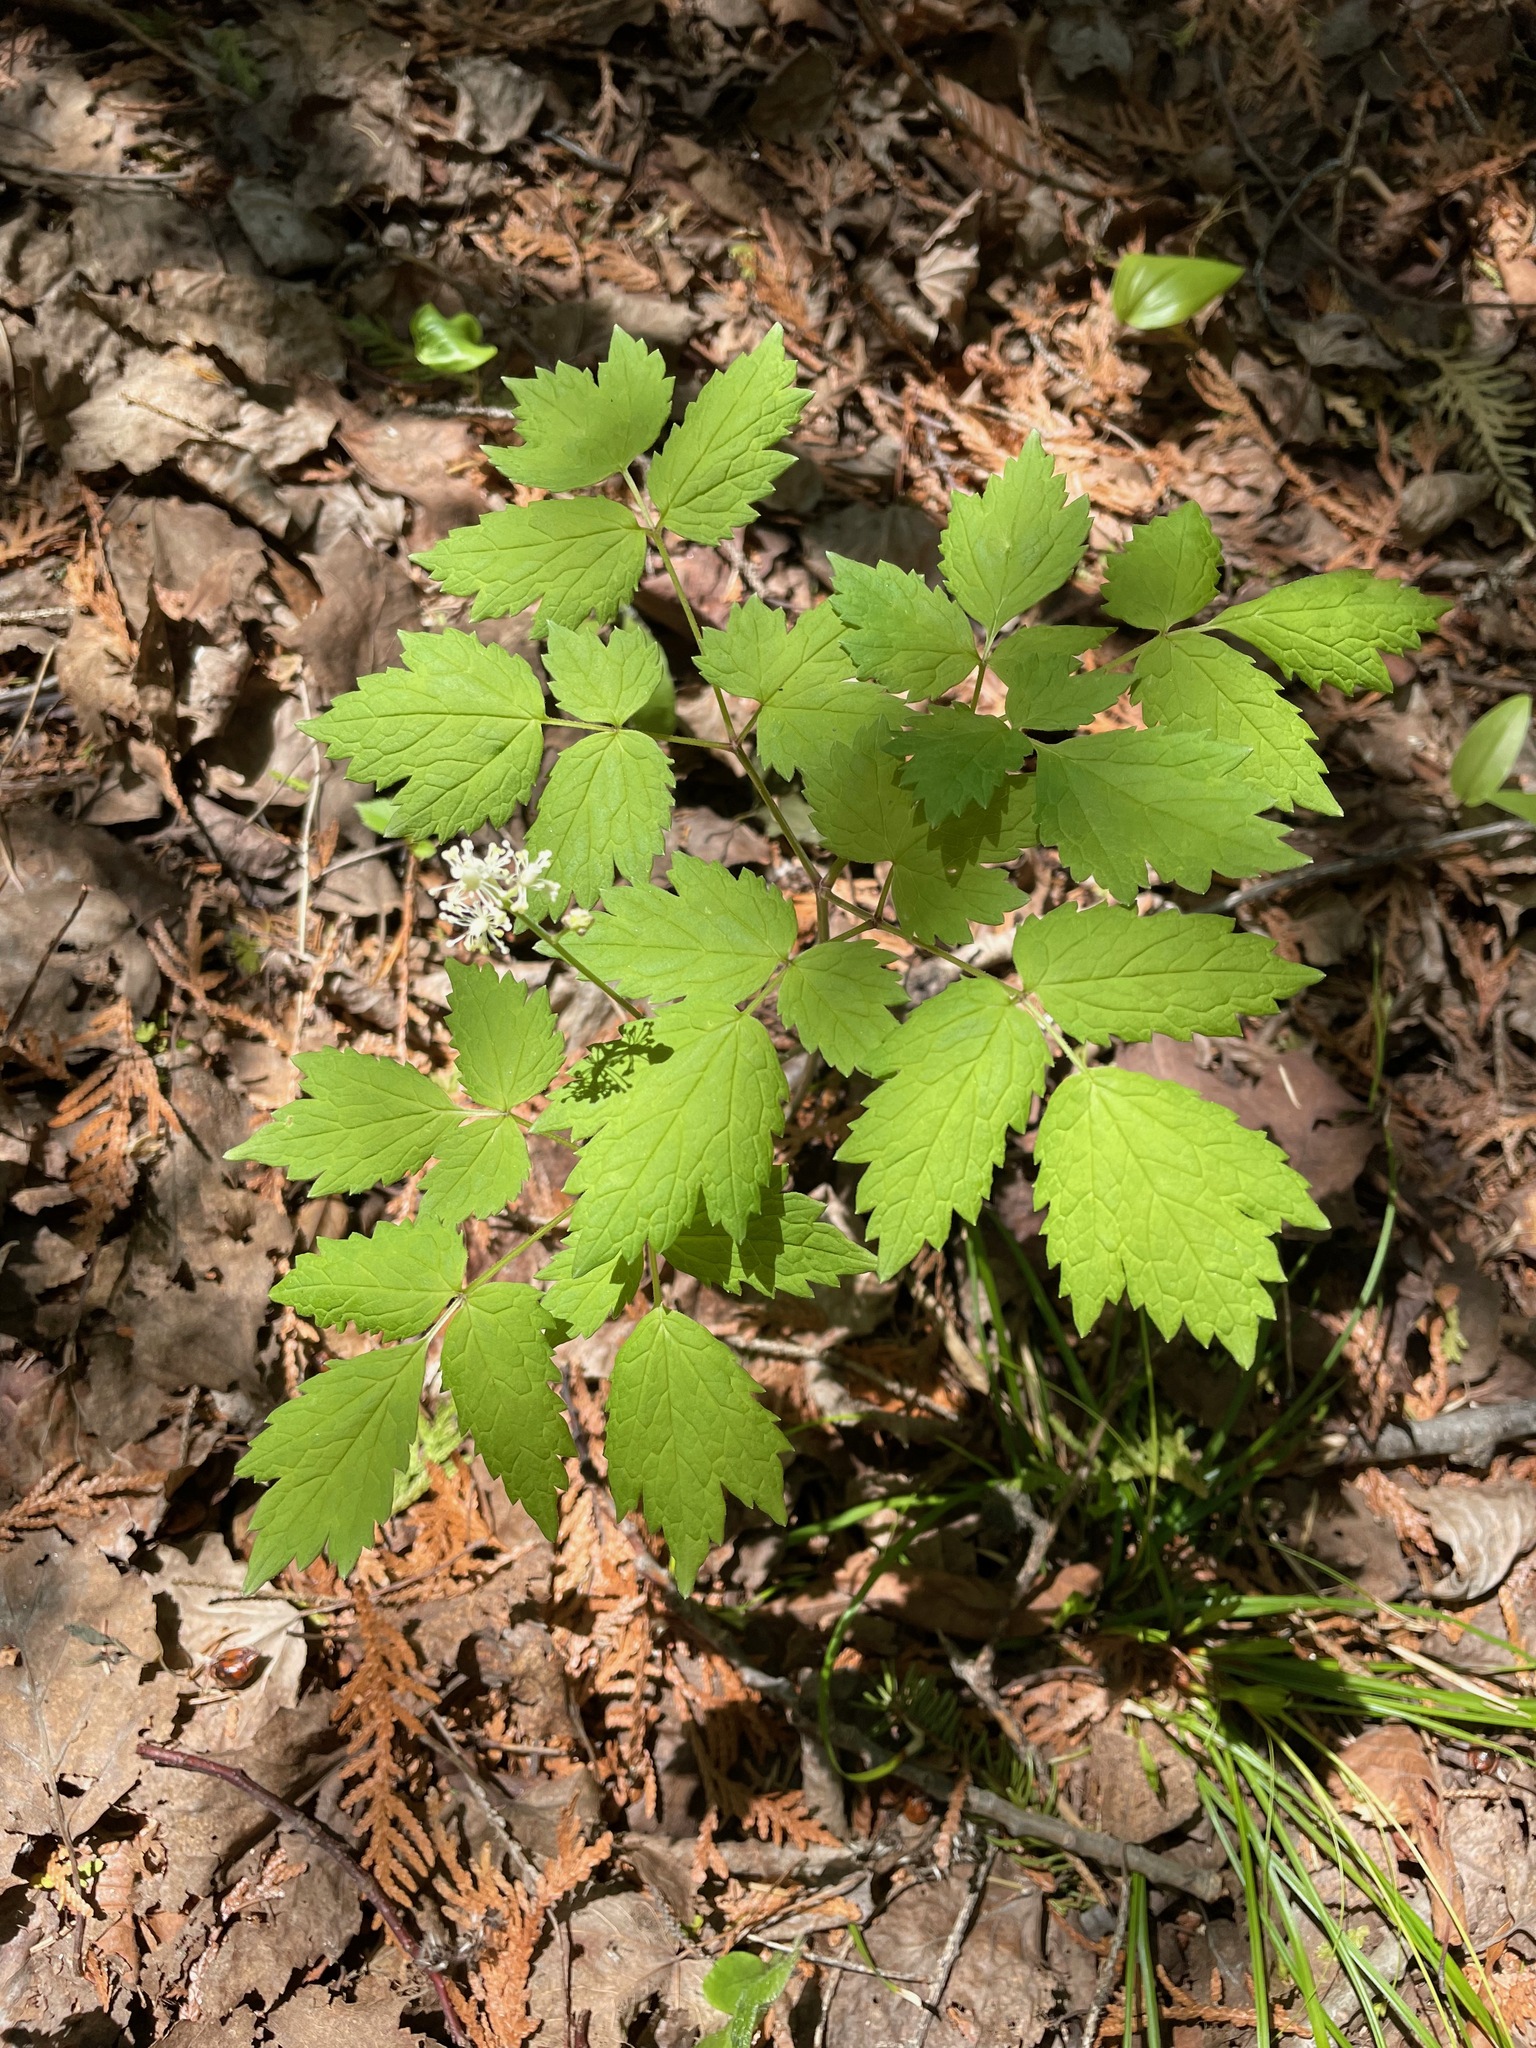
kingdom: Plantae
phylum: Tracheophyta
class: Magnoliopsida
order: Ranunculales
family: Ranunculaceae
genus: Actaea
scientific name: Actaea pachypoda
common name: Doll's-eyes
